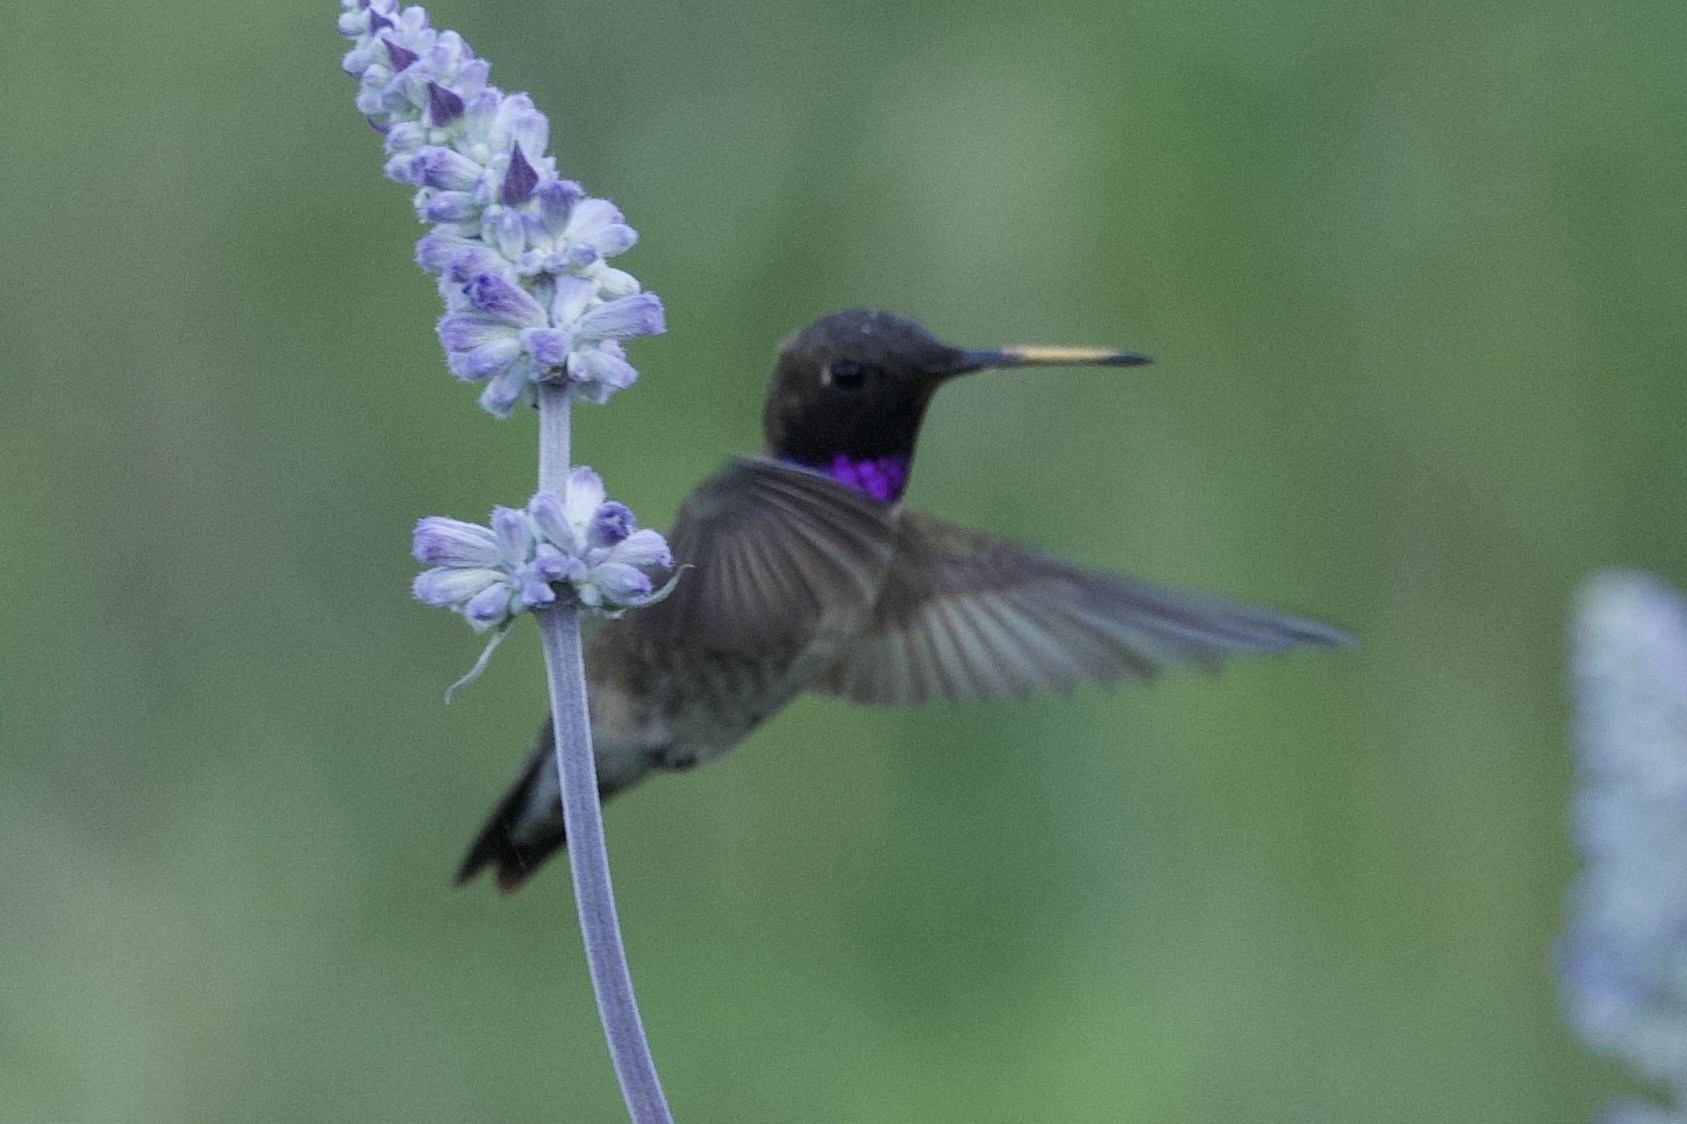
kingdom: Animalia
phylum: Chordata
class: Aves
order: Apodiformes
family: Trochilidae
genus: Archilochus
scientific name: Archilochus alexandri
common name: Black-chinned hummingbird
